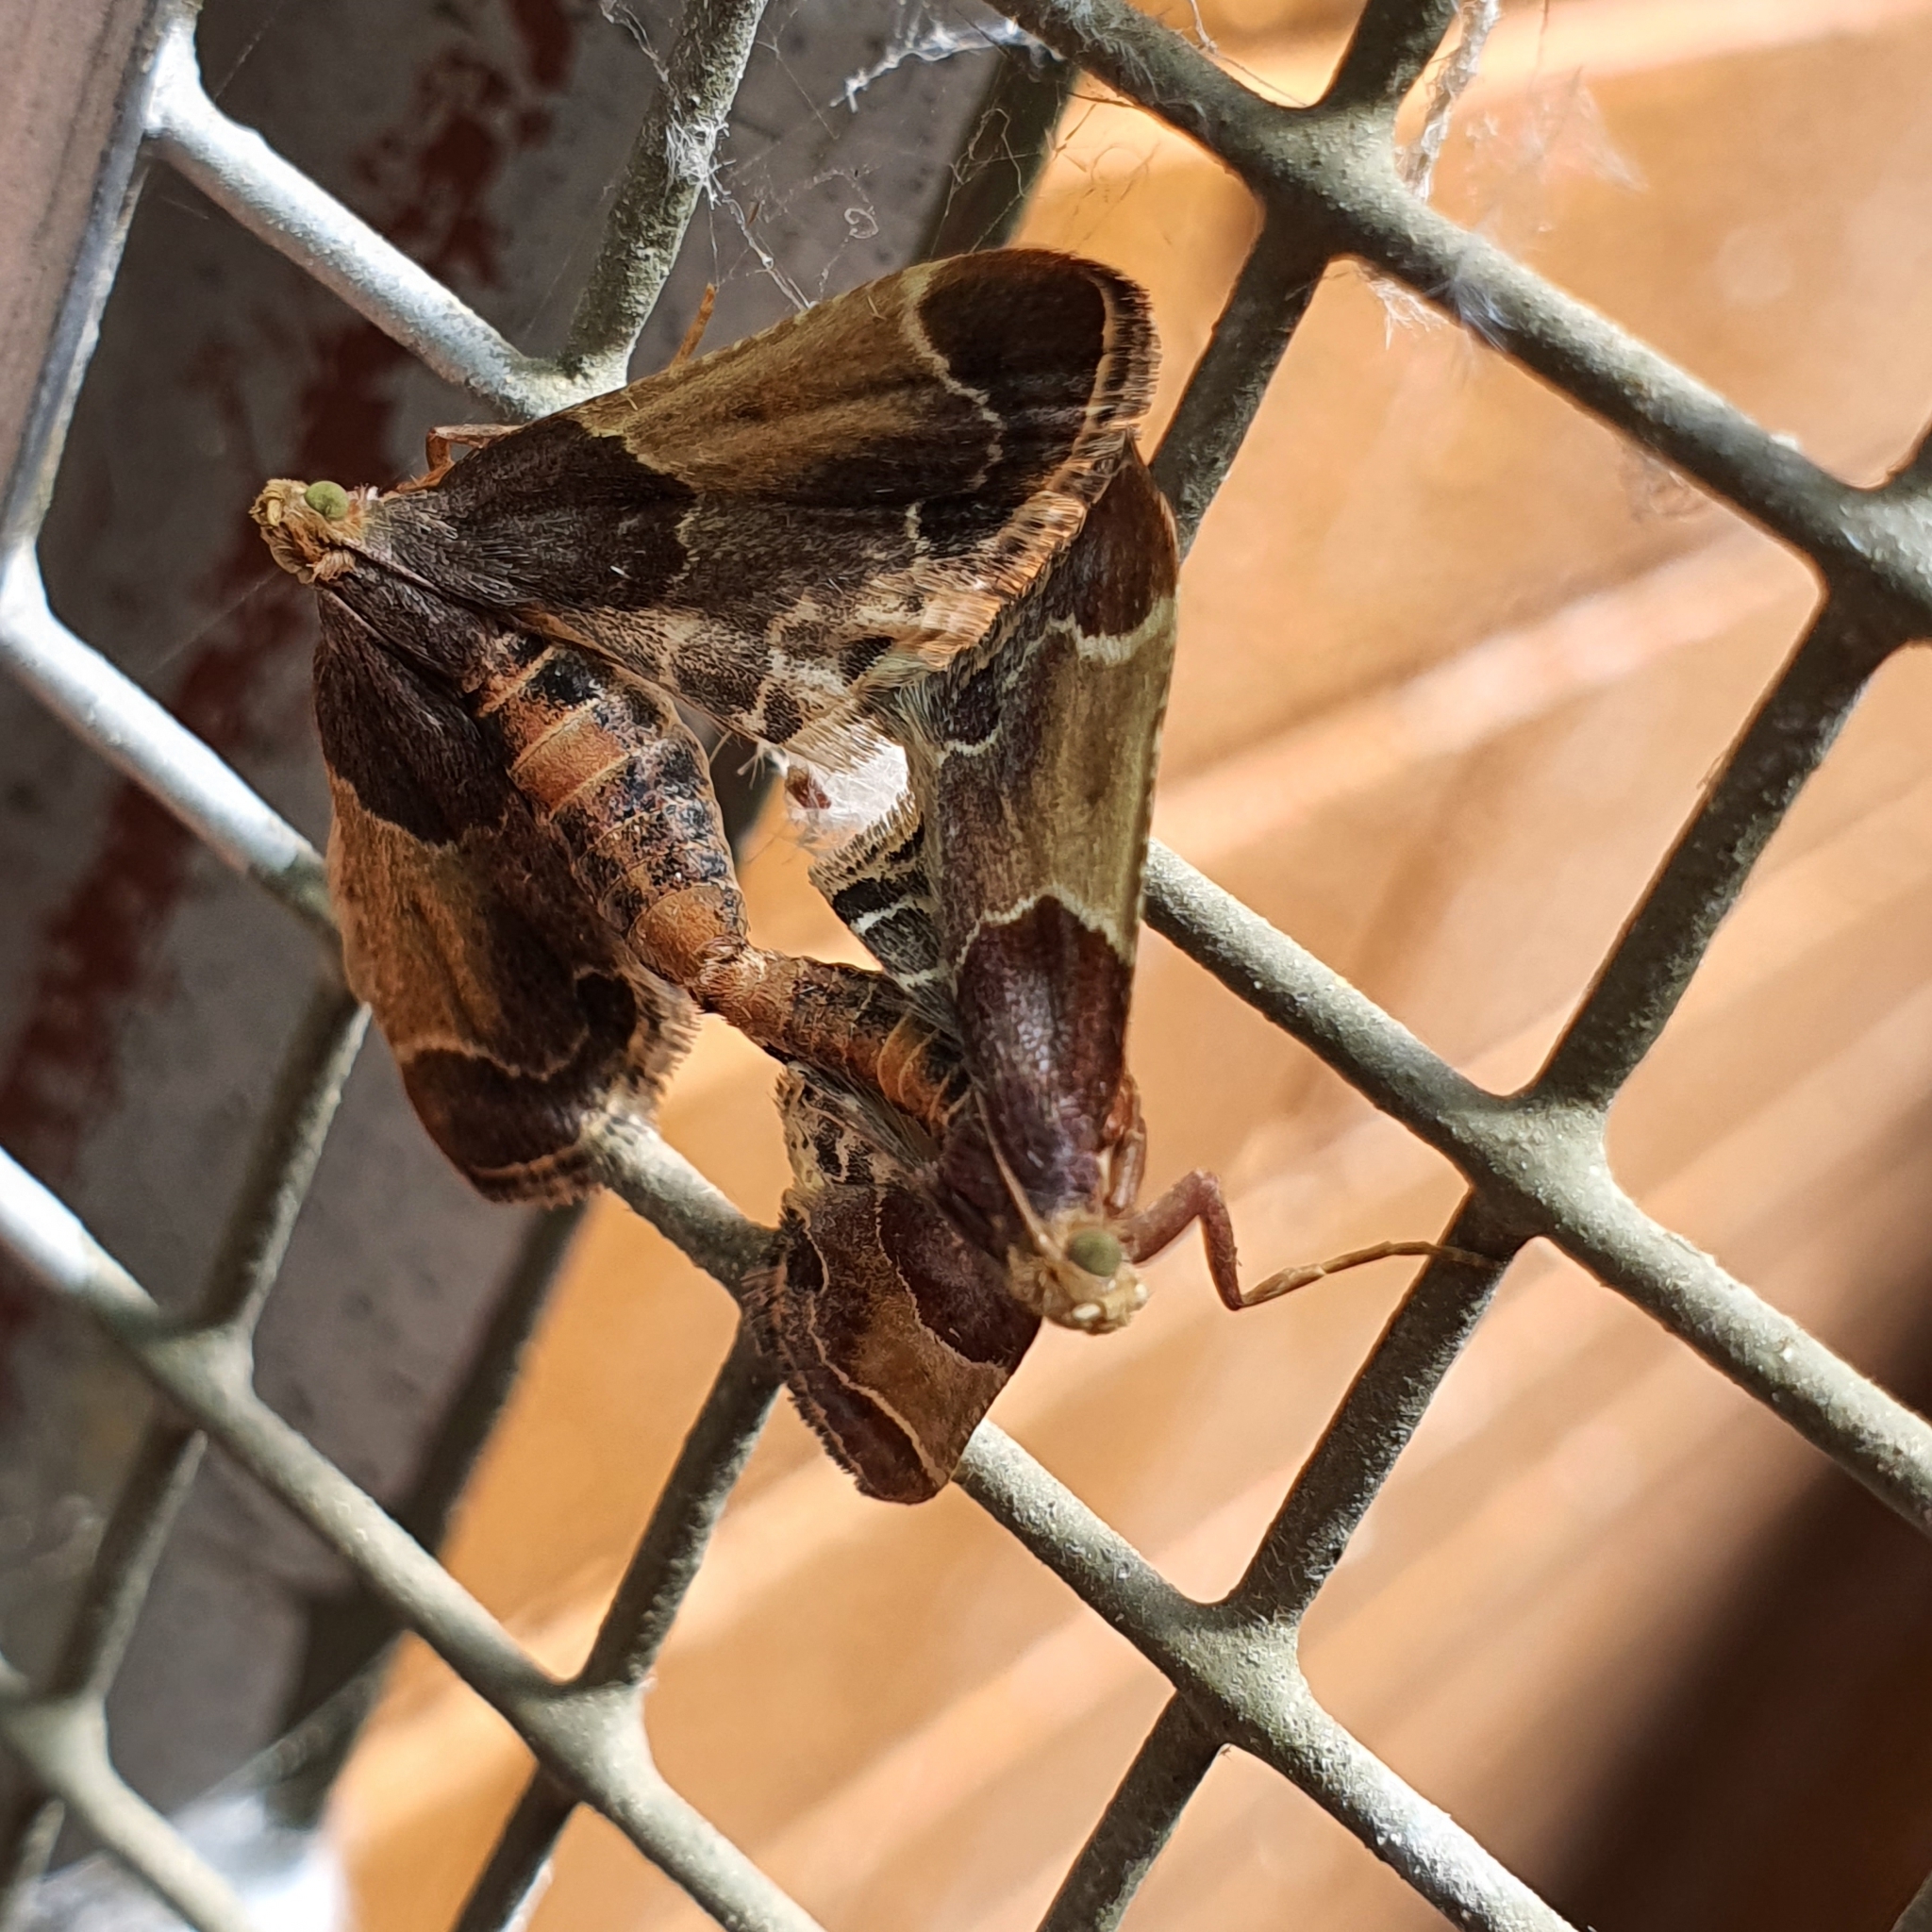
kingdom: Animalia
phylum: Arthropoda
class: Insecta
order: Lepidoptera
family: Pyralidae
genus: Pyralis
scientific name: Pyralis farinalis
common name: Meal moth
